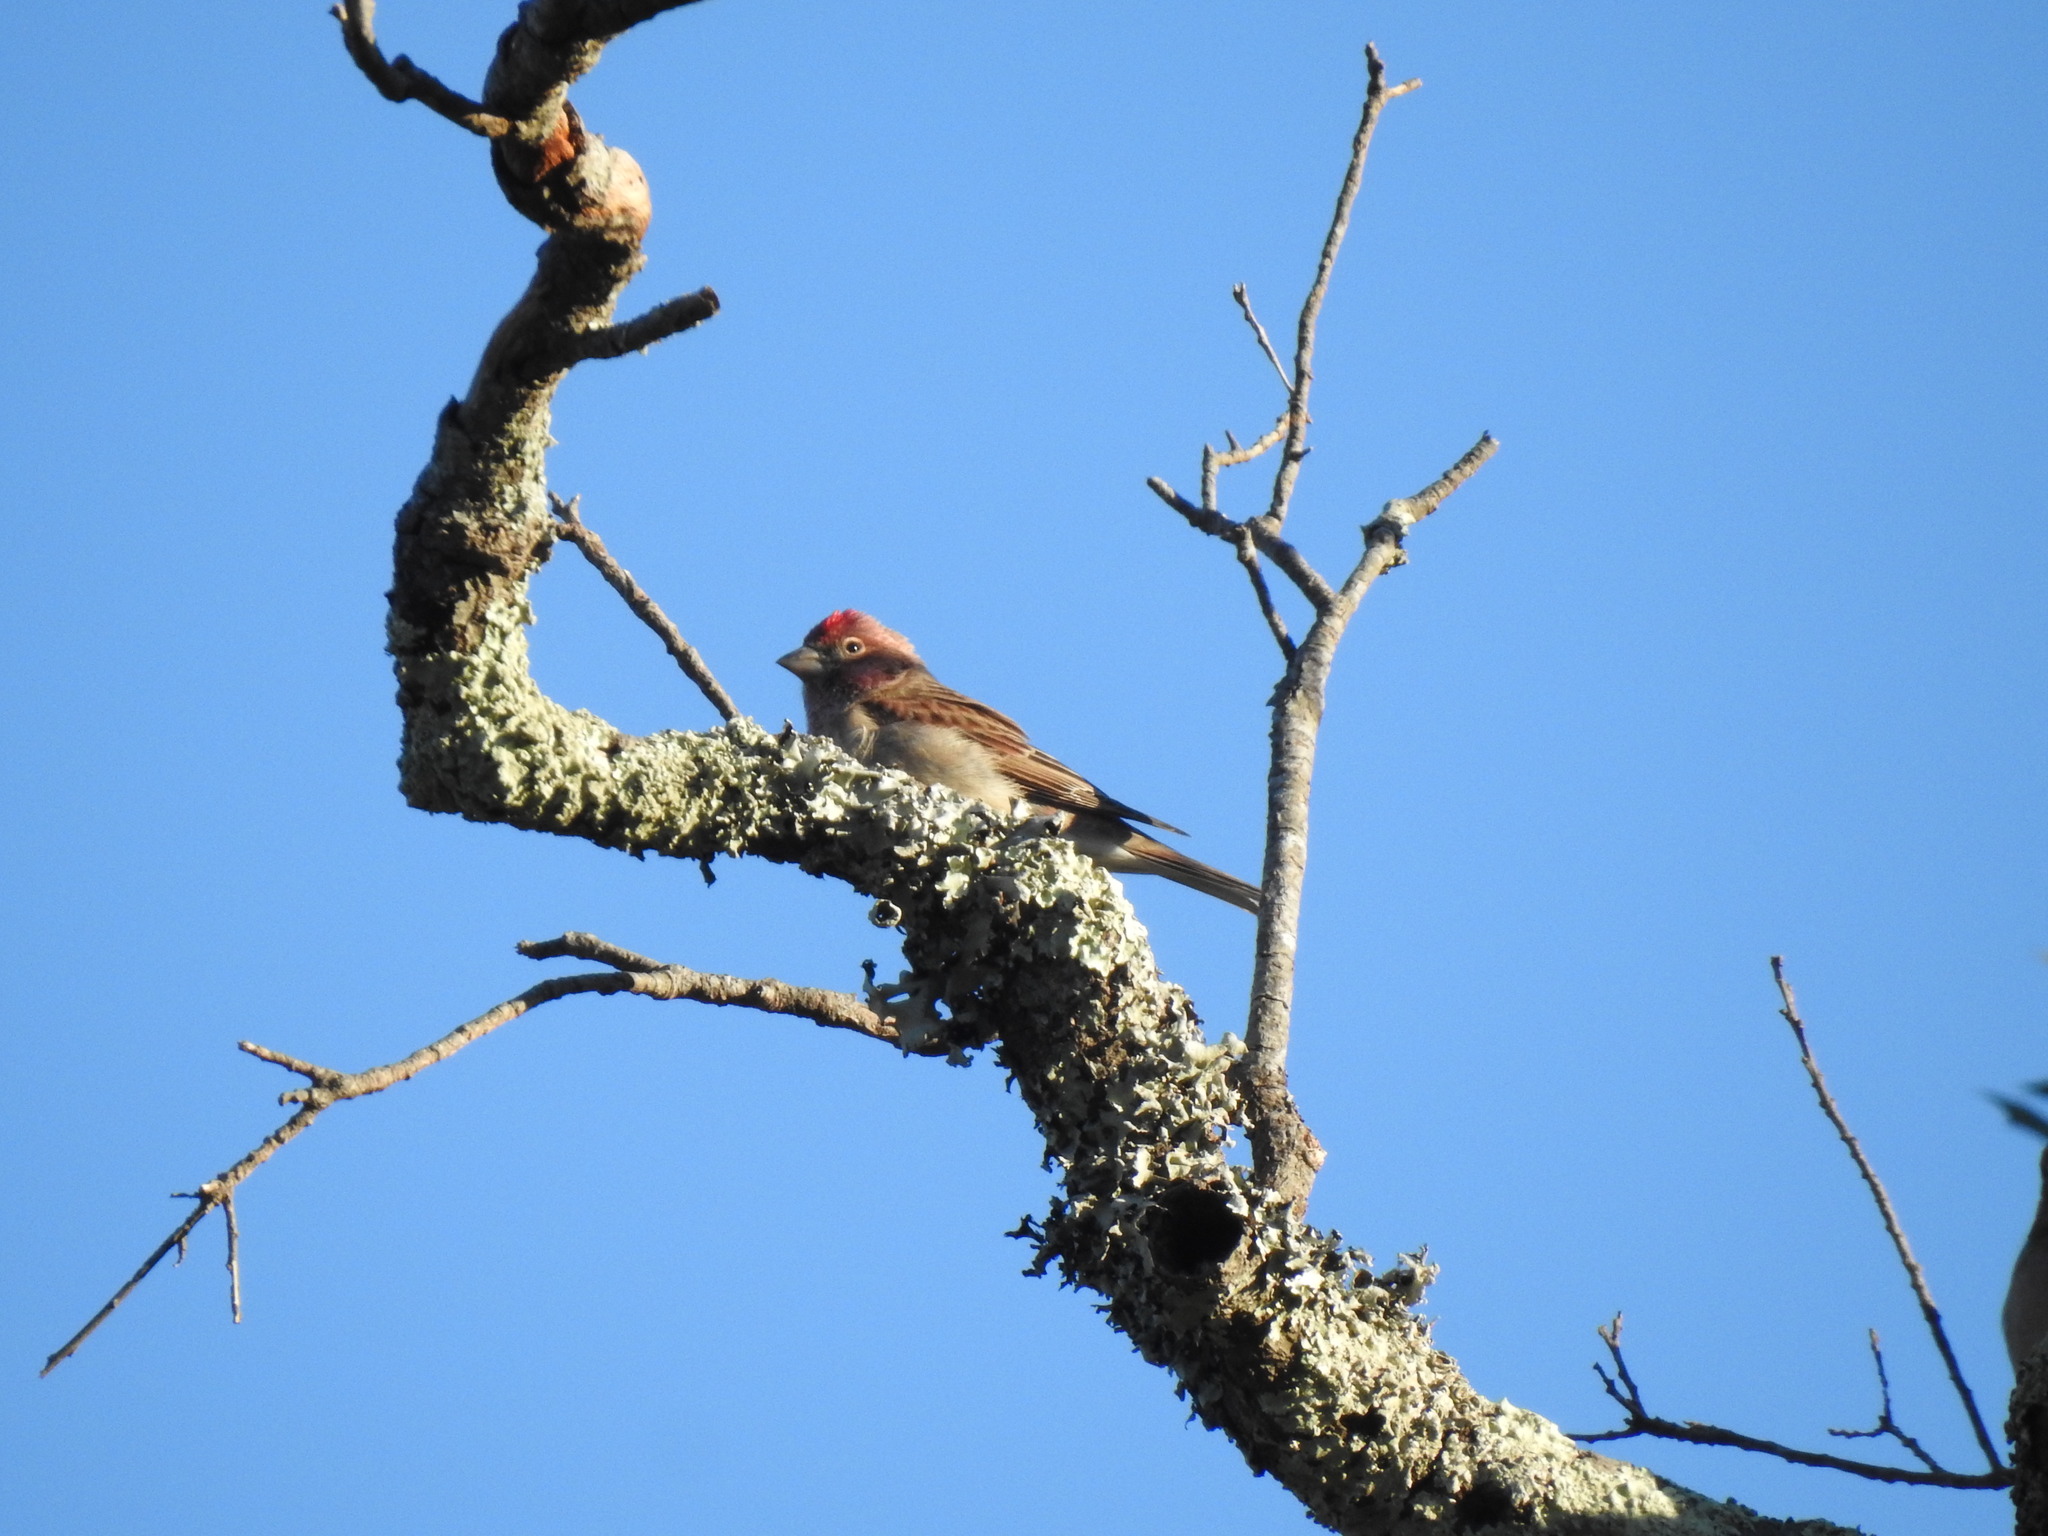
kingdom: Animalia
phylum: Chordata
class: Aves
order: Passeriformes
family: Fringillidae
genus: Haemorhous
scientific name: Haemorhous cassinii
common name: Cassin's finch
